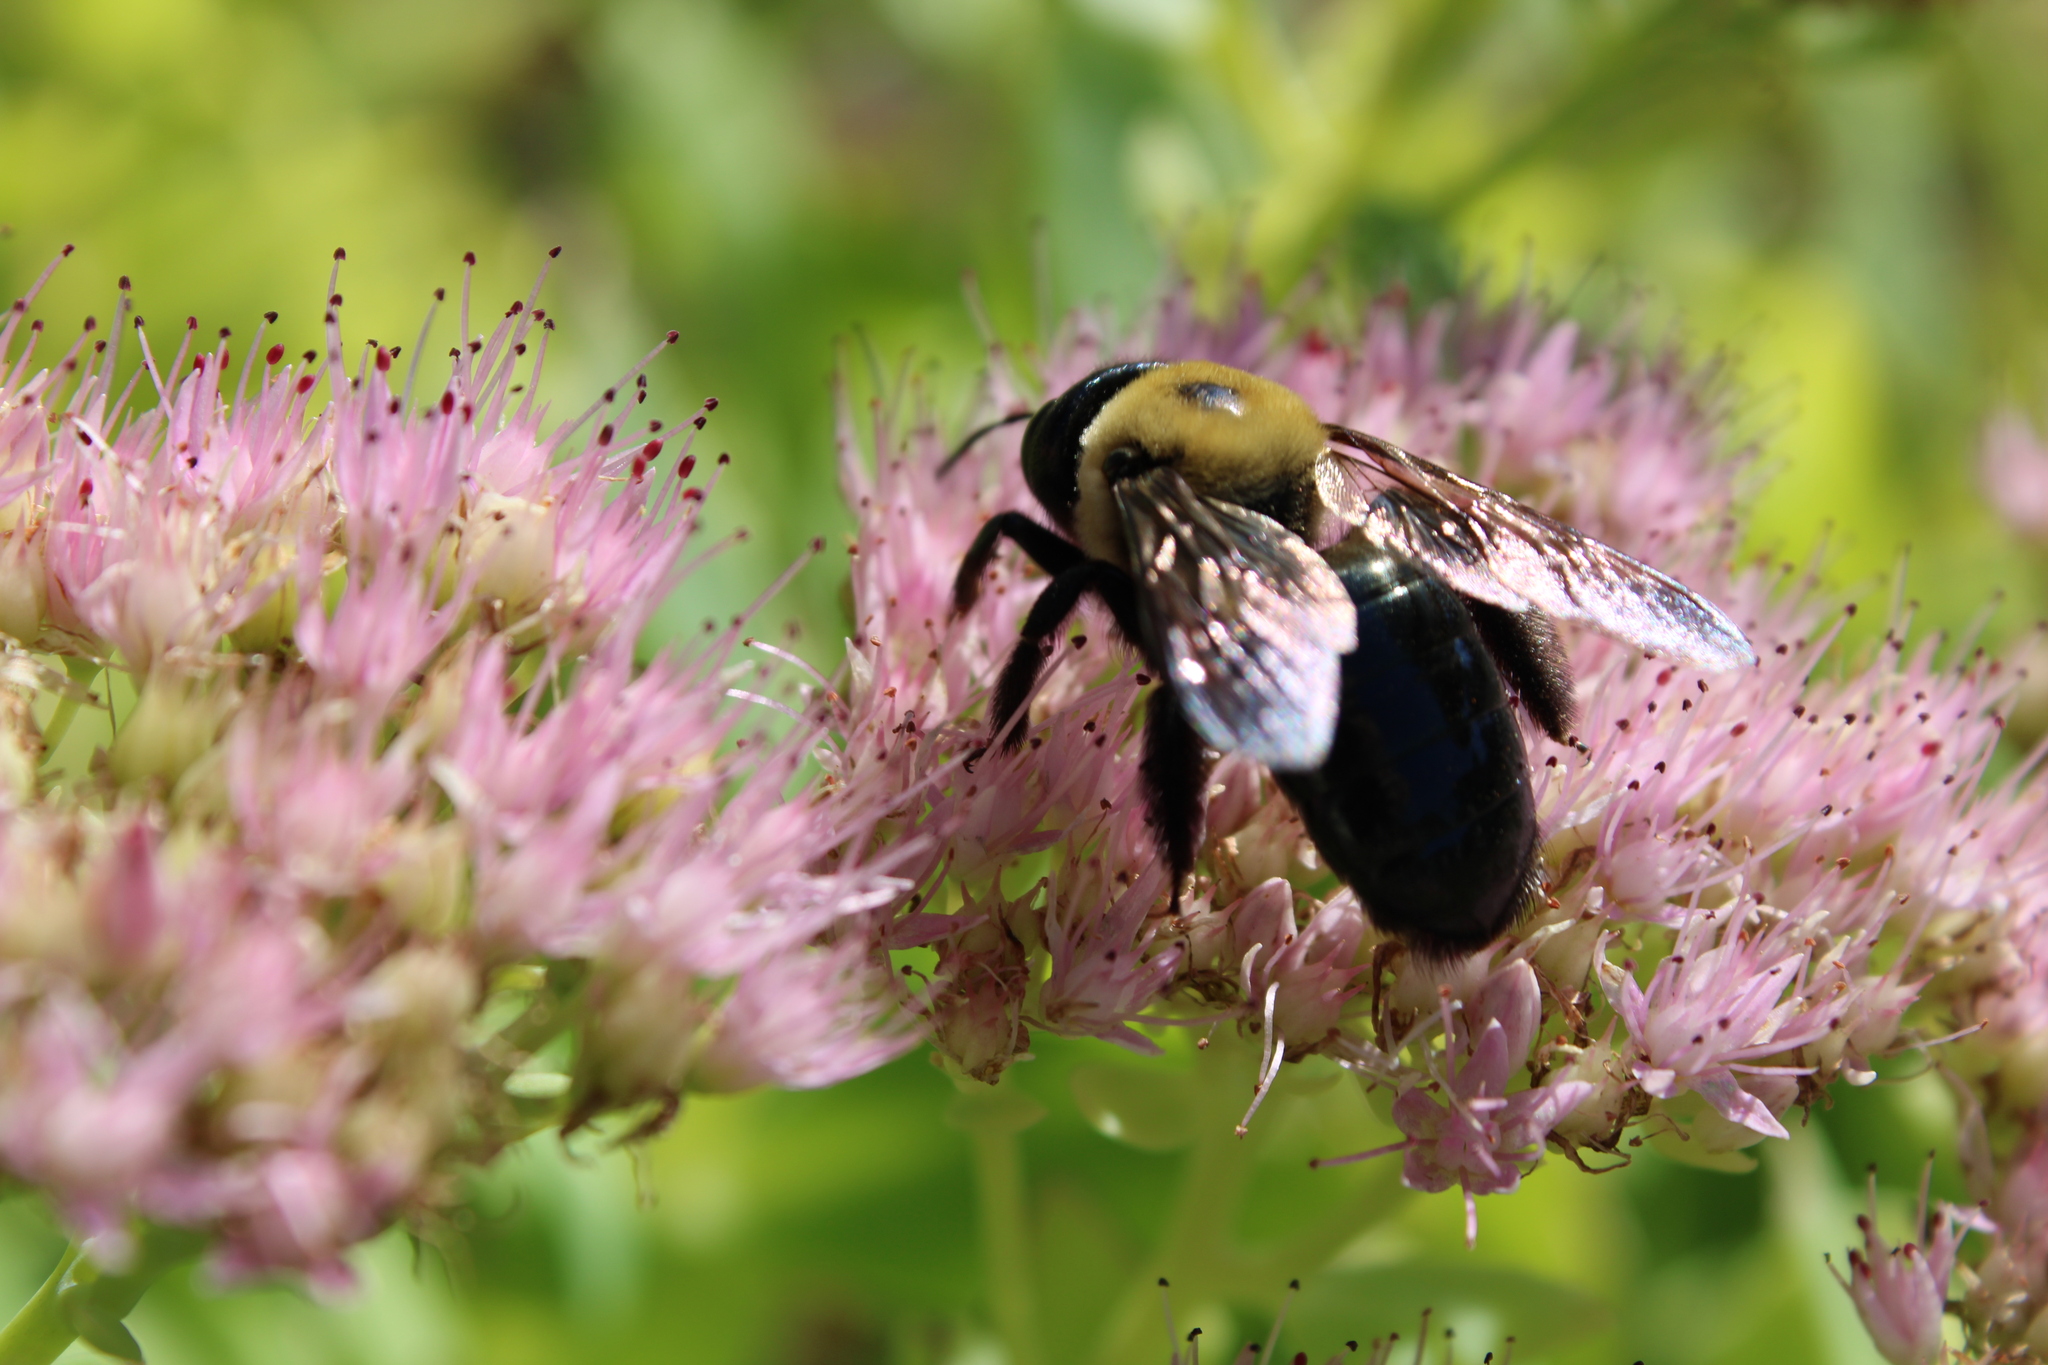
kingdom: Animalia
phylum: Arthropoda
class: Insecta
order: Hymenoptera
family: Apidae
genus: Xylocopa
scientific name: Xylocopa virginica
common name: Carpenter bee
